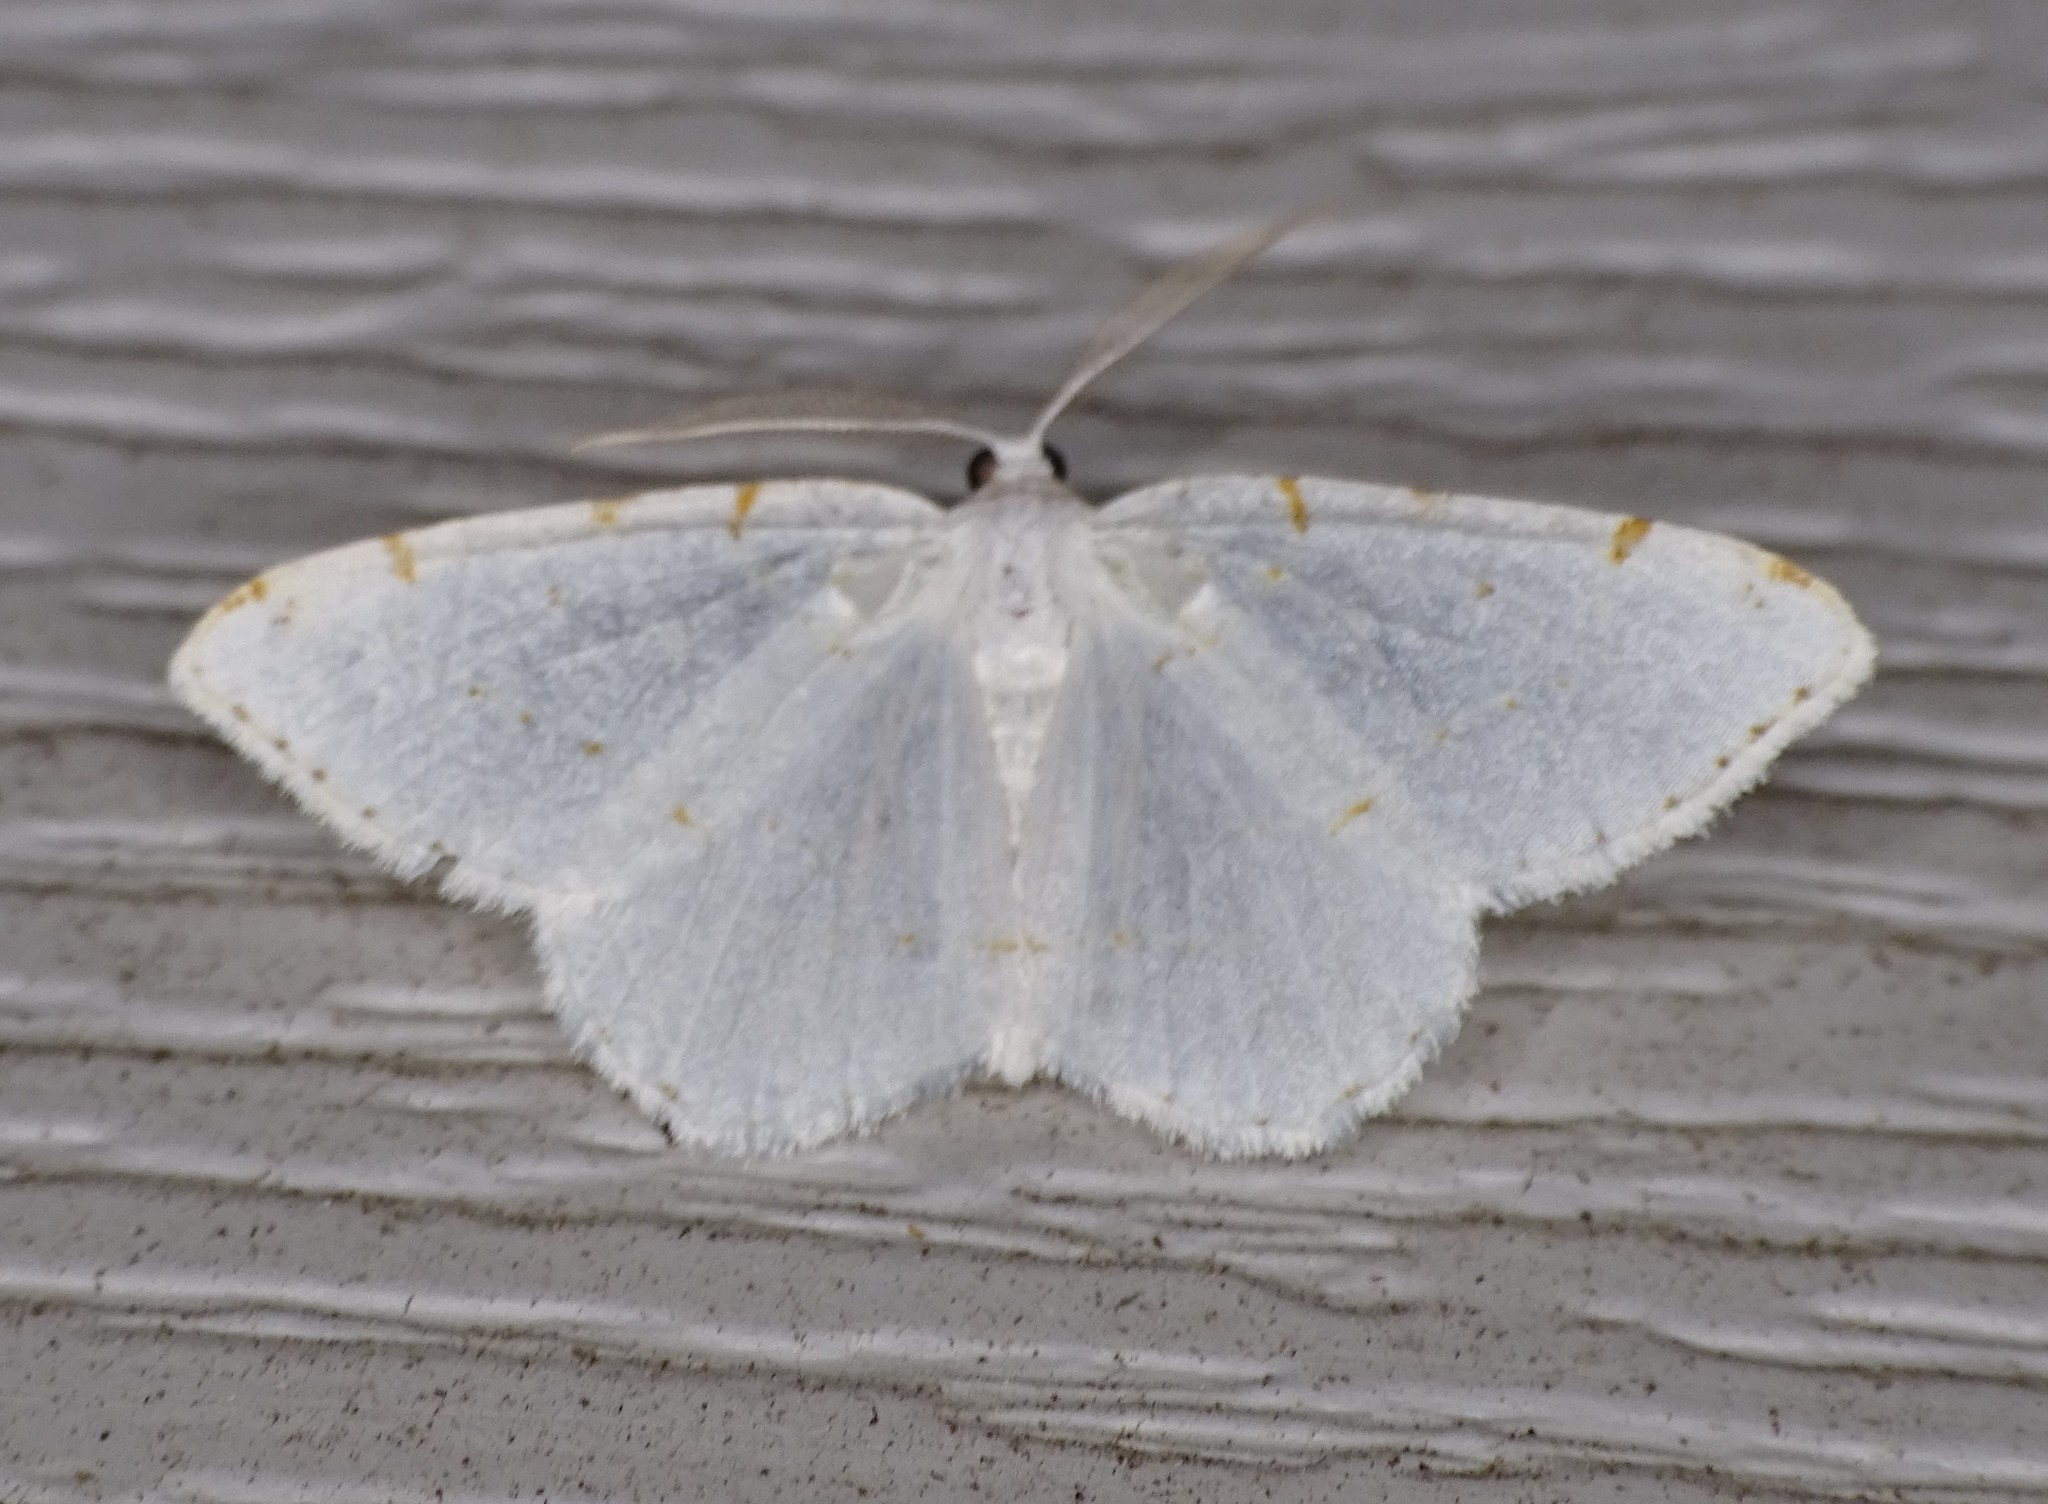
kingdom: Animalia
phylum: Arthropoda
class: Insecta
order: Lepidoptera
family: Geometridae
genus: Macaria
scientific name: Macaria pustularia
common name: Lesser maple spanworm moth
